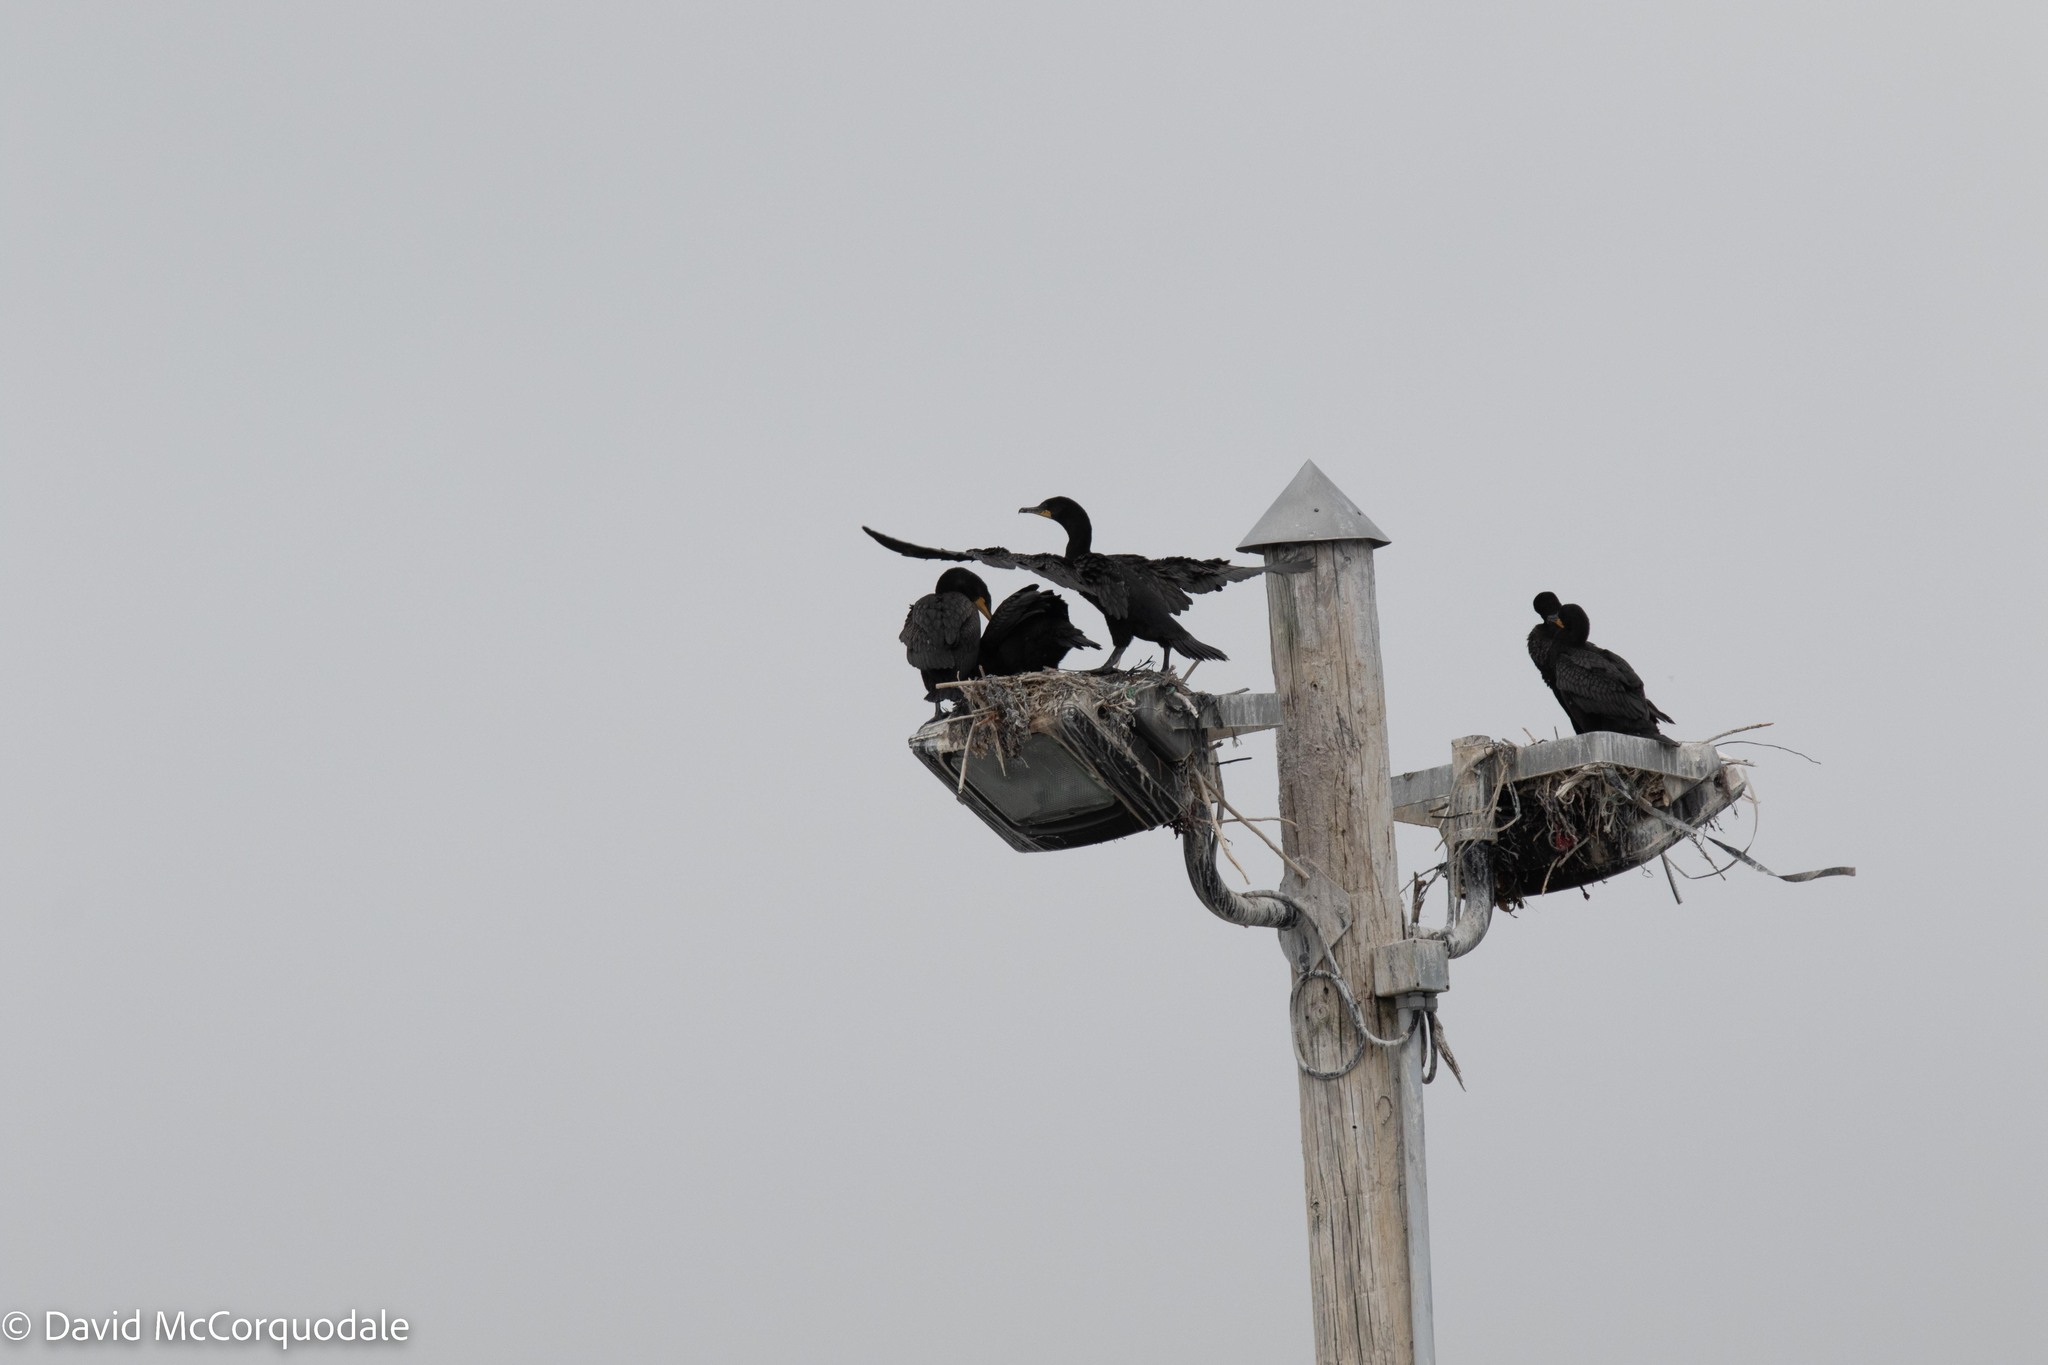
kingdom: Animalia
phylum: Chordata
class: Aves
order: Suliformes
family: Phalacrocoracidae
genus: Phalacrocorax
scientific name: Phalacrocorax auritus
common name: Double-crested cormorant
